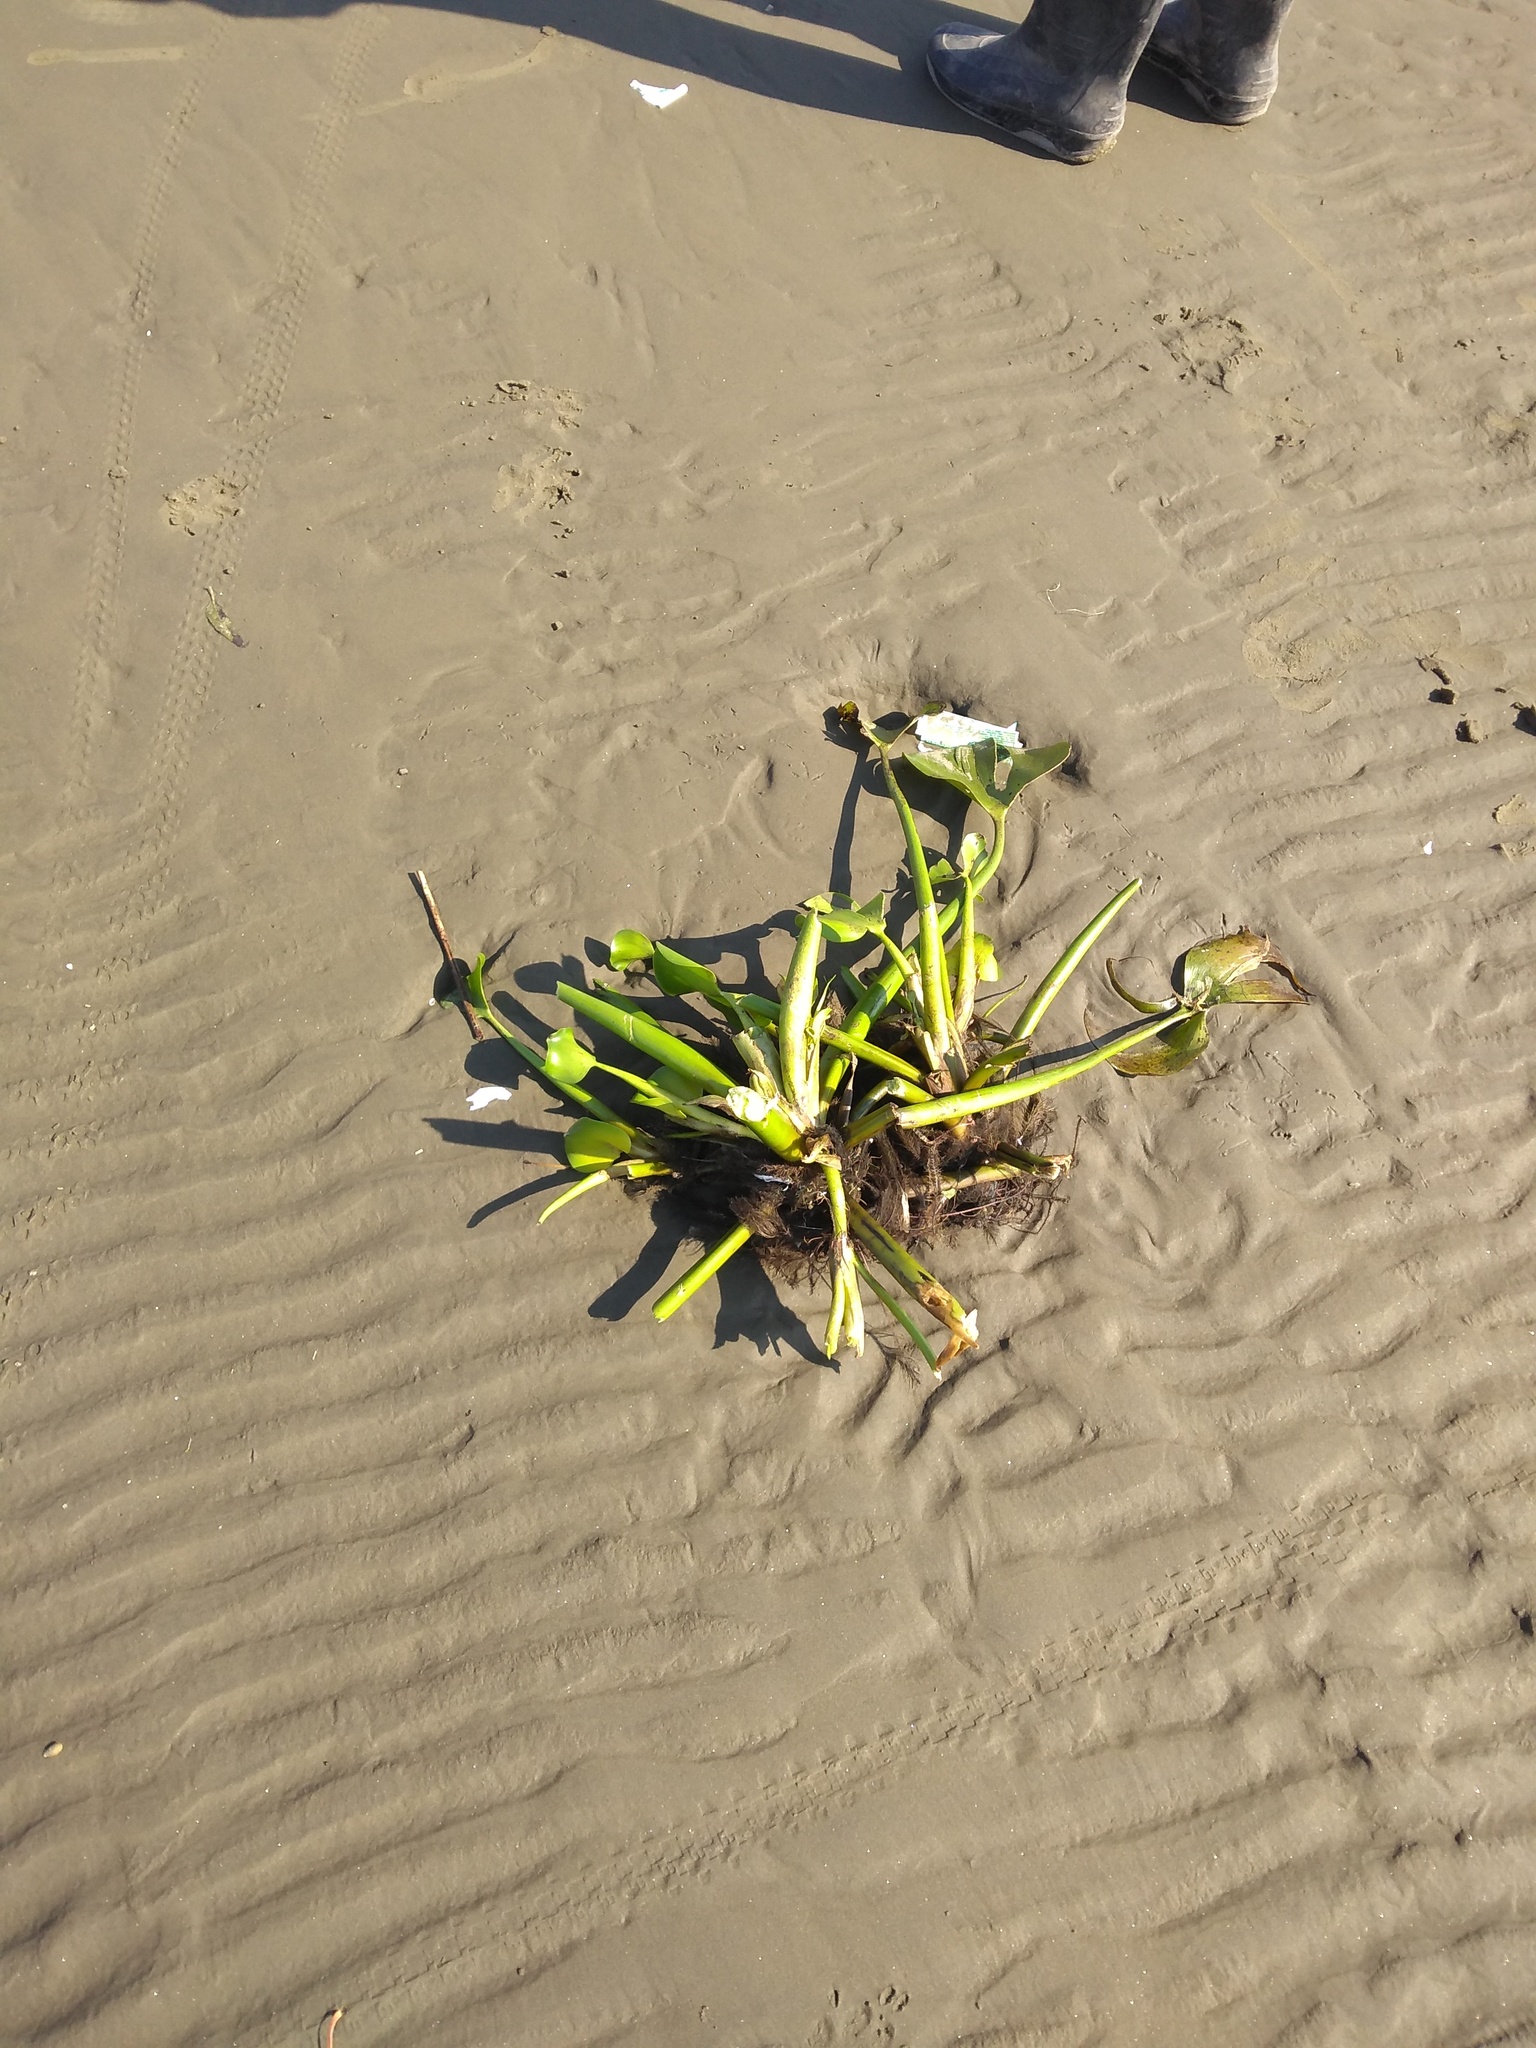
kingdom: Plantae
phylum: Tracheophyta
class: Liliopsida
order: Commelinales
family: Pontederiaceae
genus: Pontederia
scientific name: Pontederia crassipes
